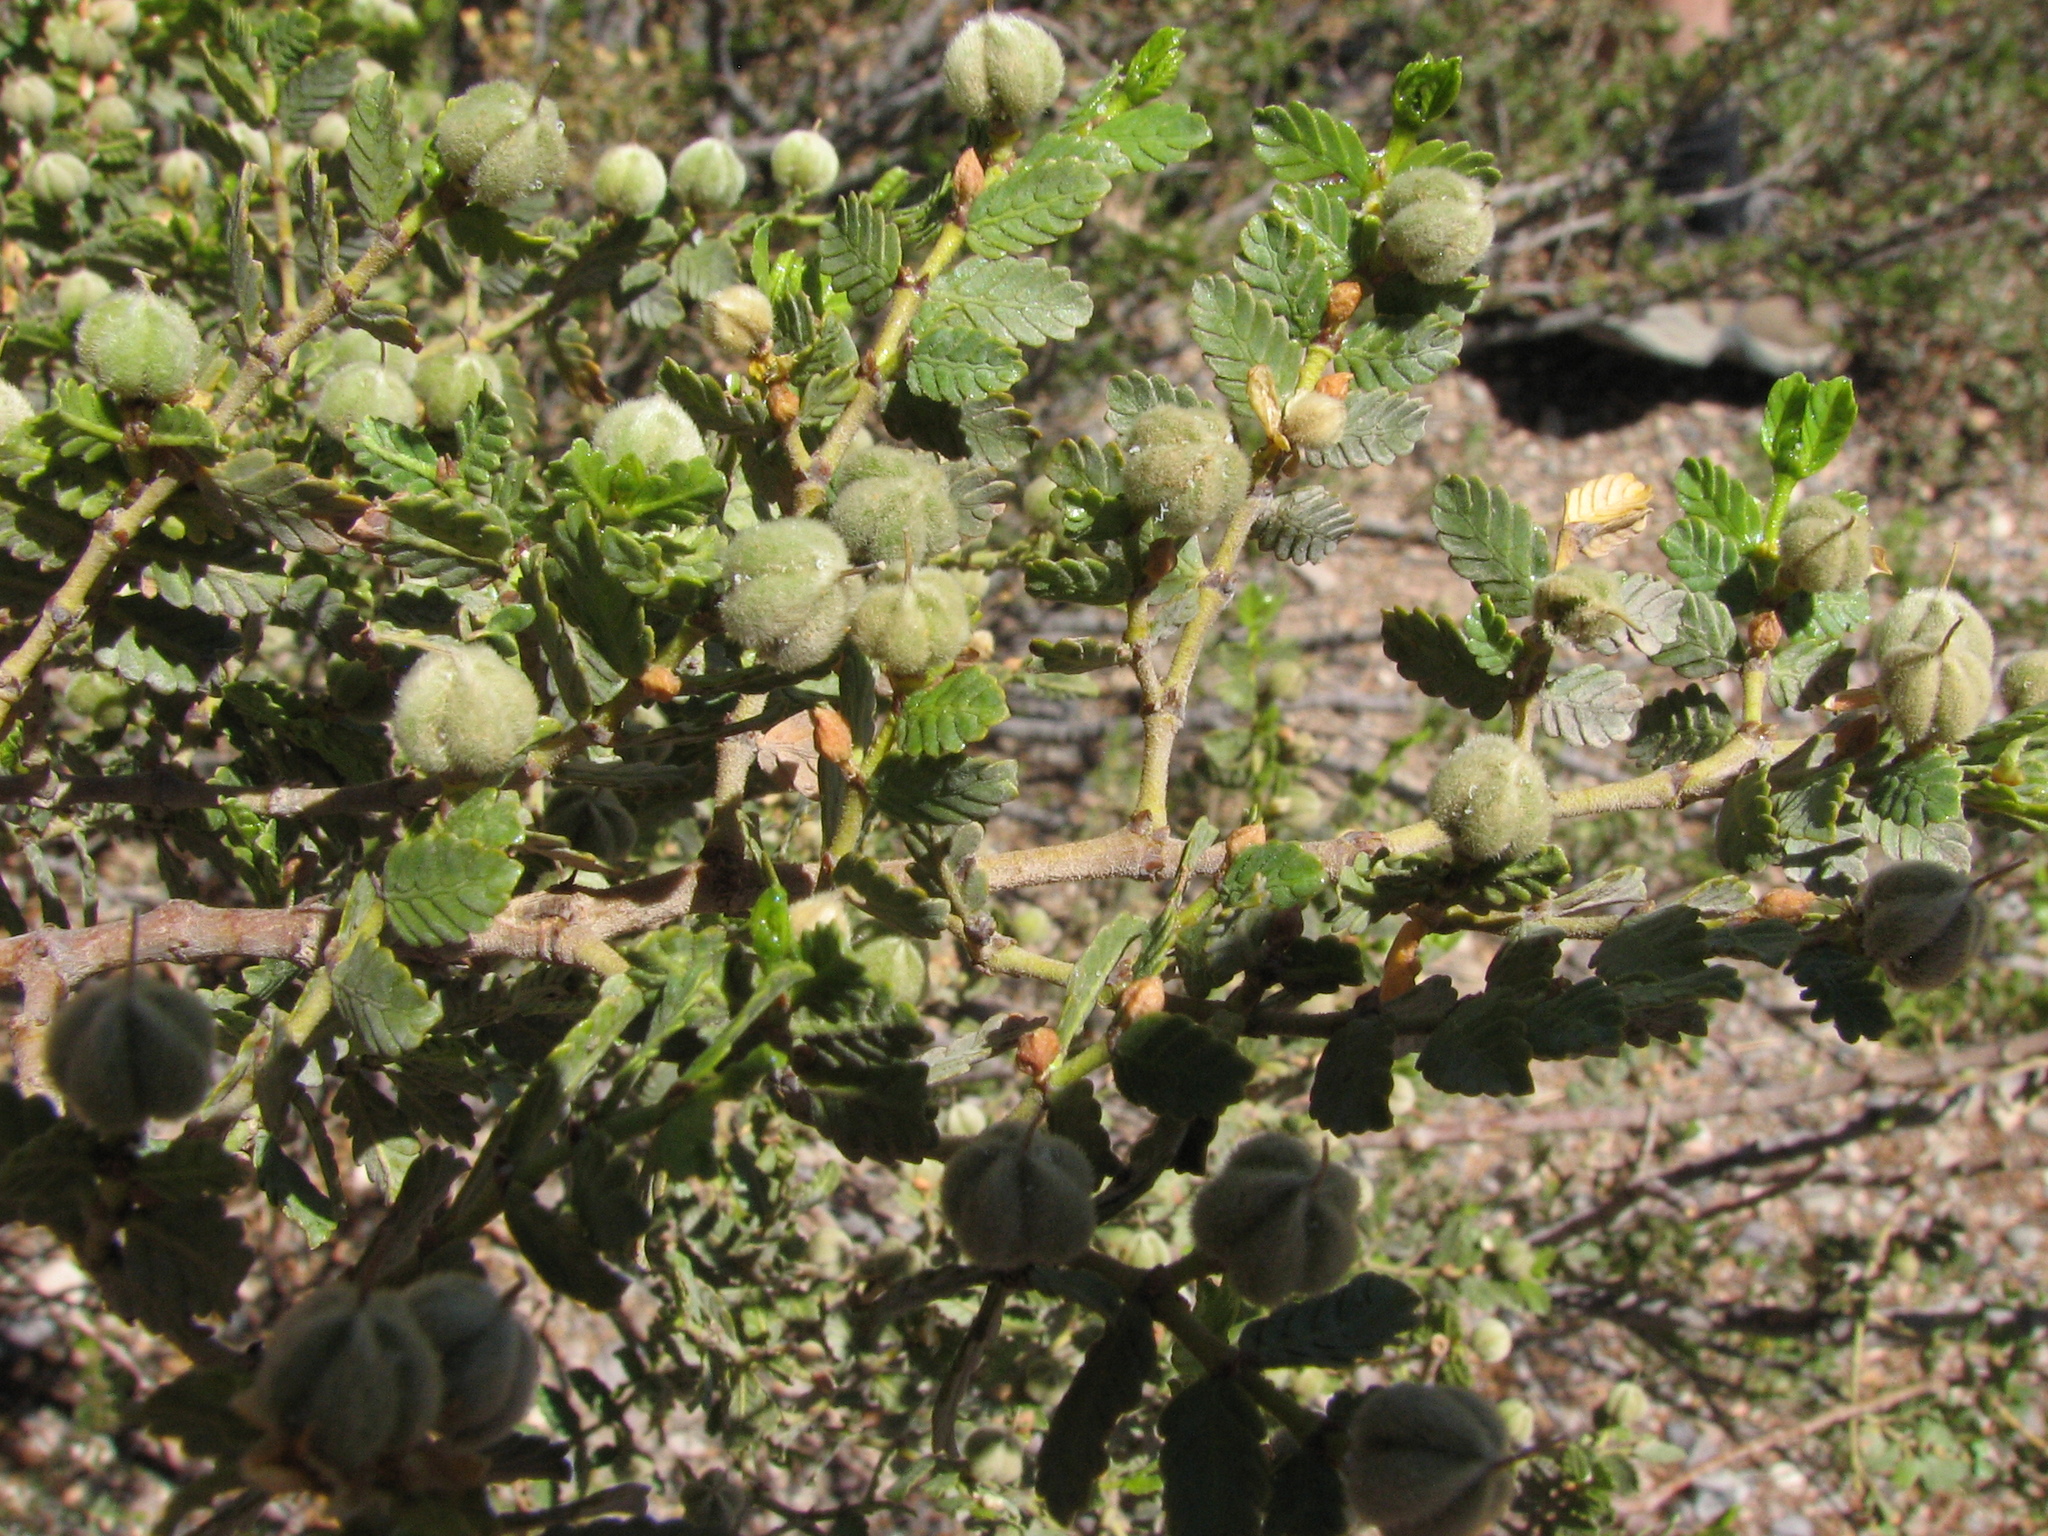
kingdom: Plantae
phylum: Tracheophyta
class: Magnoliopsida
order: Zygophyllales
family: Zygophyllaceae
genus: Larrea
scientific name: Larrea nitida
